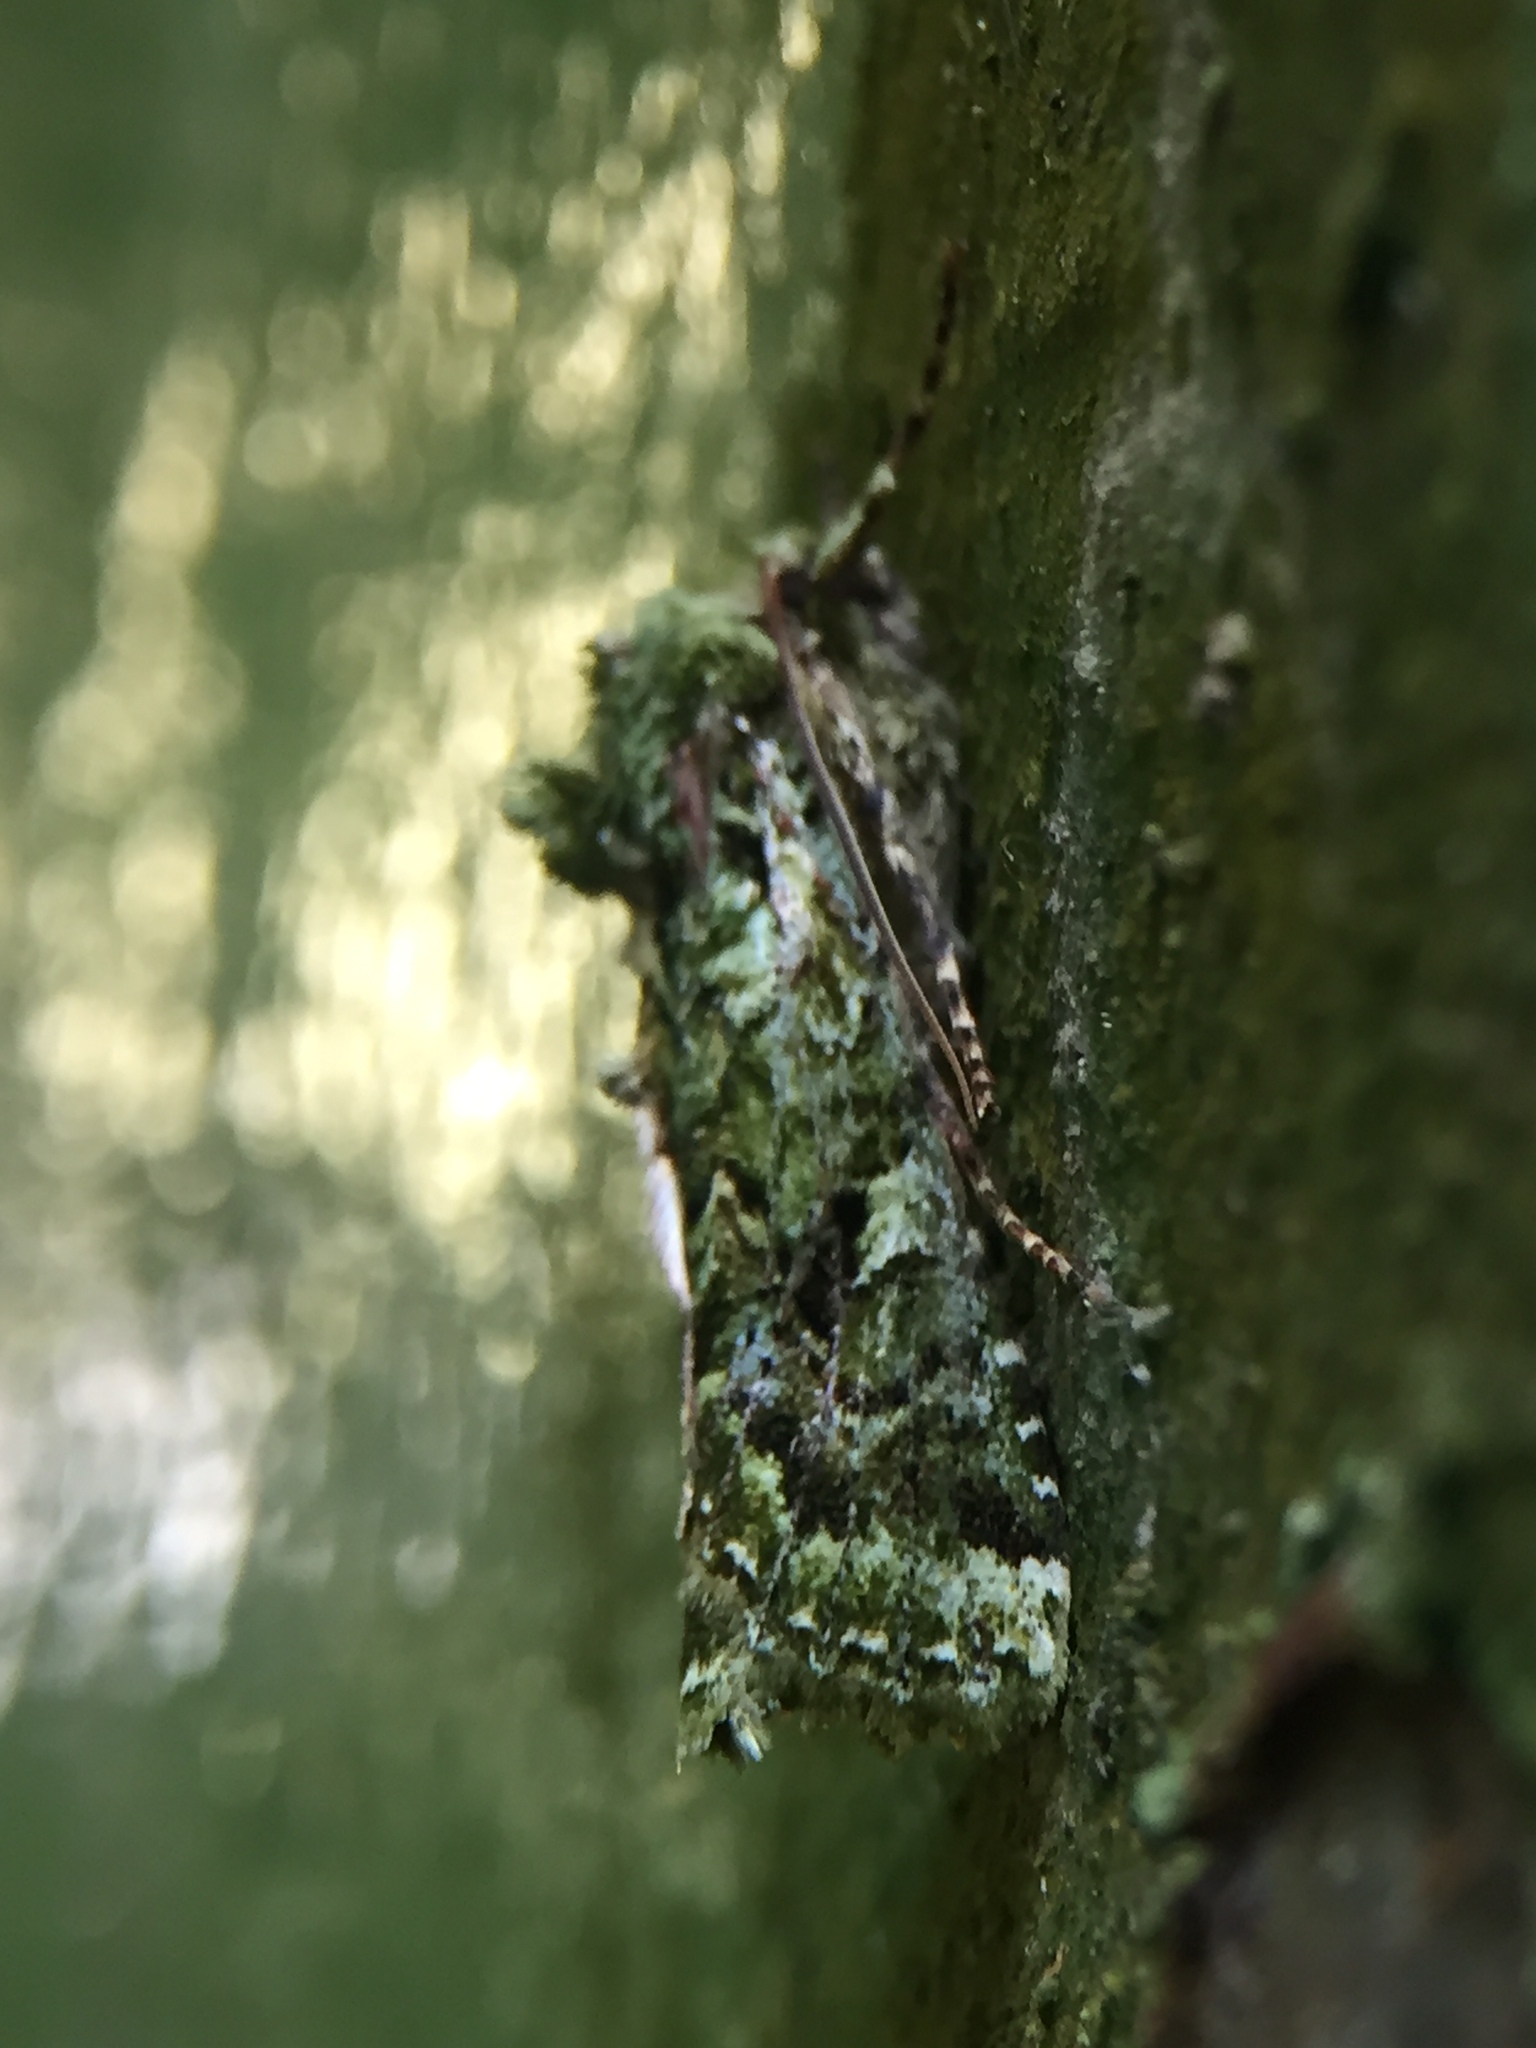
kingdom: Animalia
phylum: Arthropoda
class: Insecta
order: Lepidoptera
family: Noctuidae
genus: Feredayia
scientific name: Feredayia grammosa
